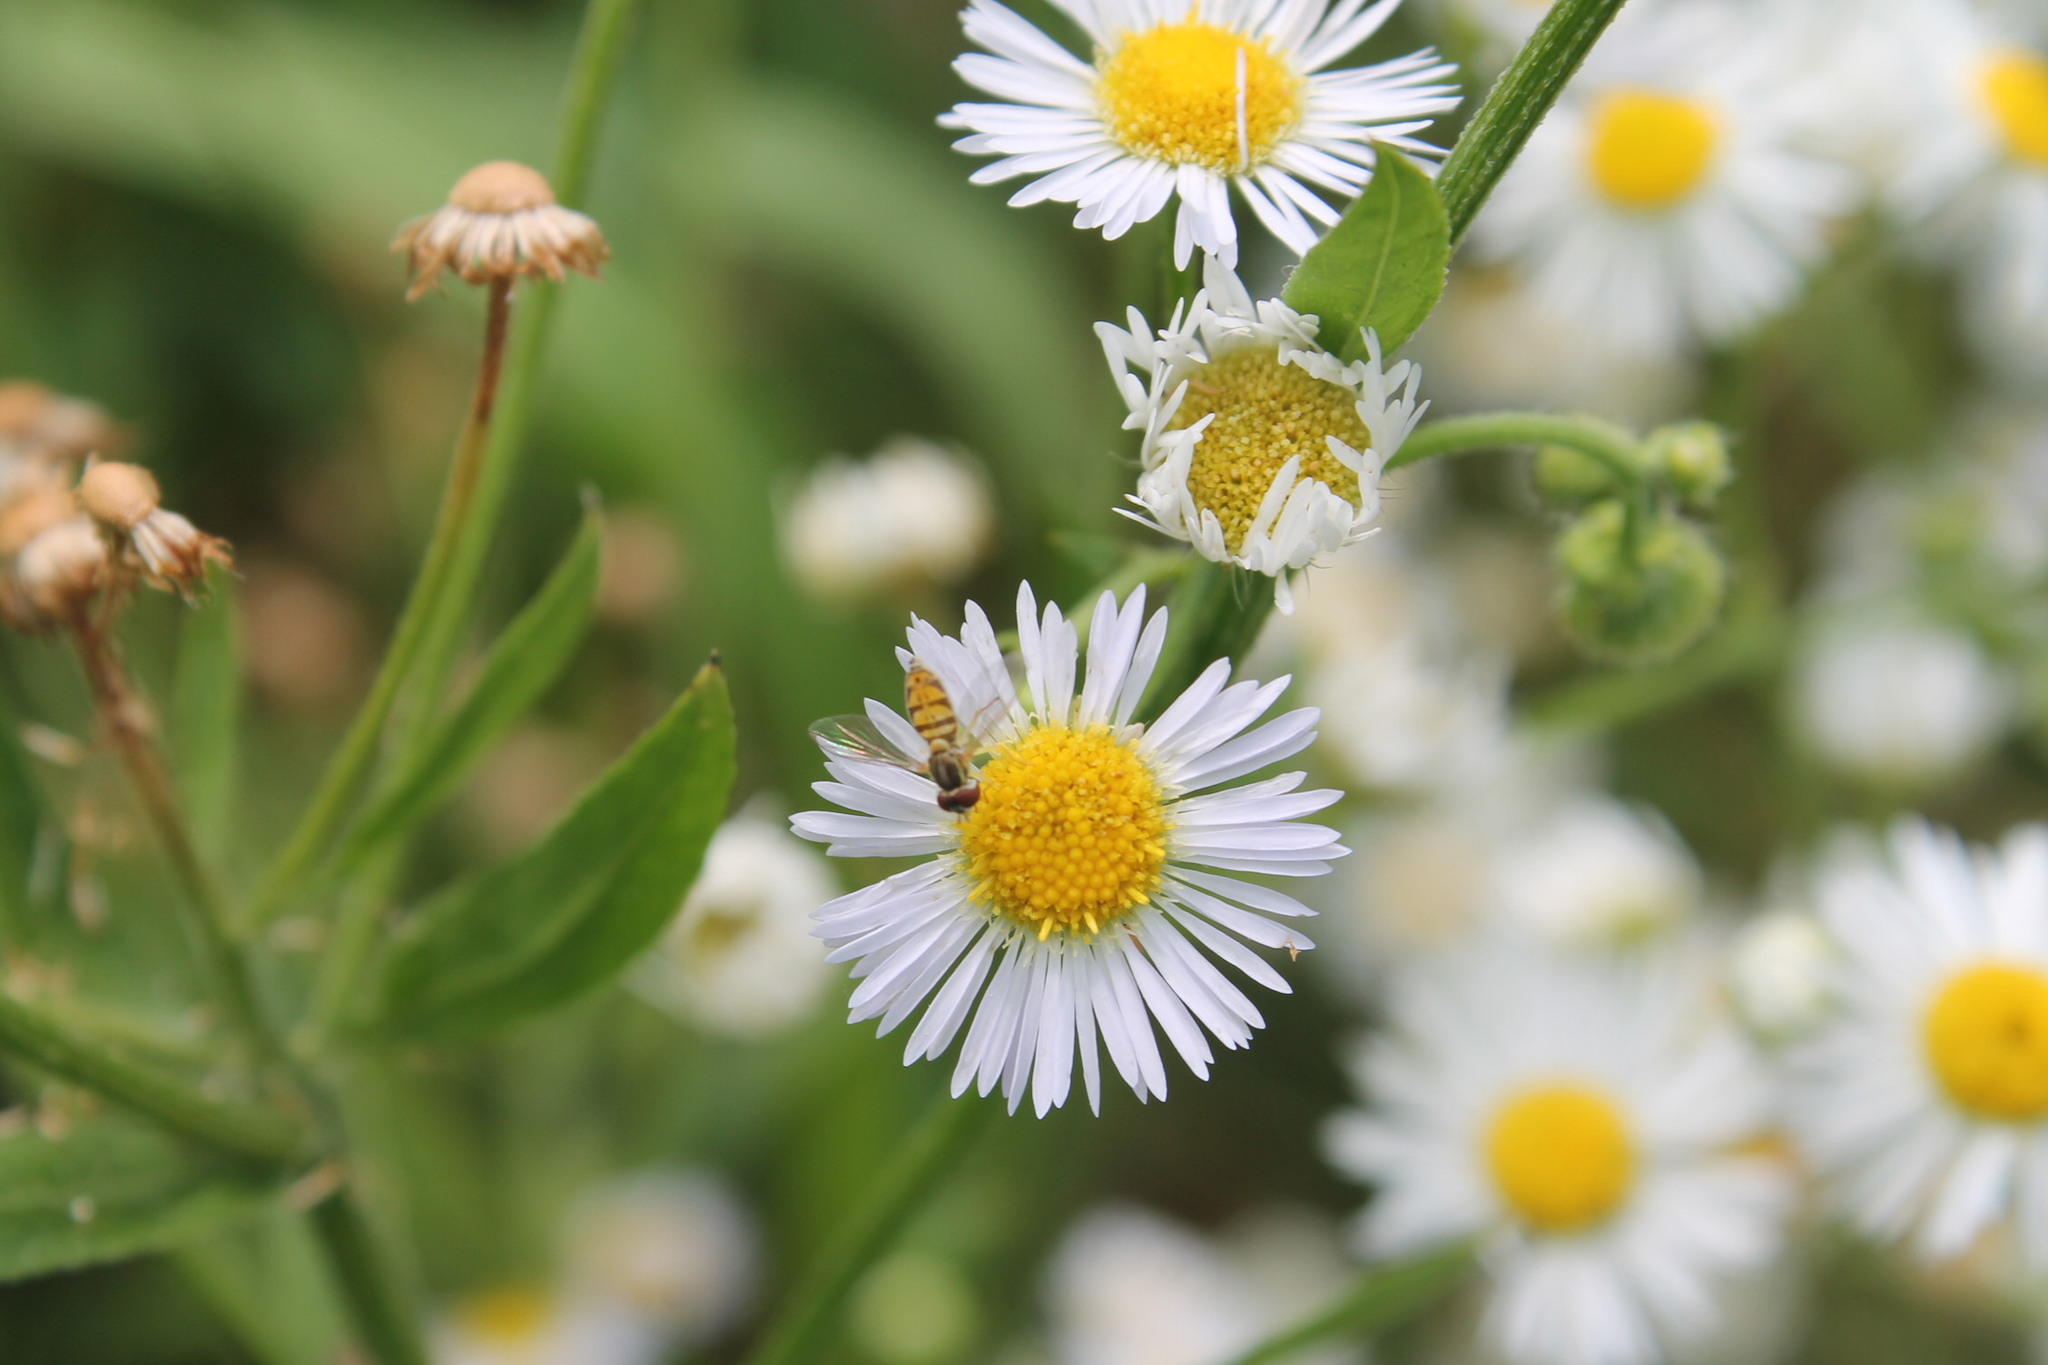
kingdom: Animalia
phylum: Arthropoda
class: Insecta
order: Diptera
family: Syrphidae
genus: Toxomerus
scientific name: Toxomerus marginatus
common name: Syrphid fly
